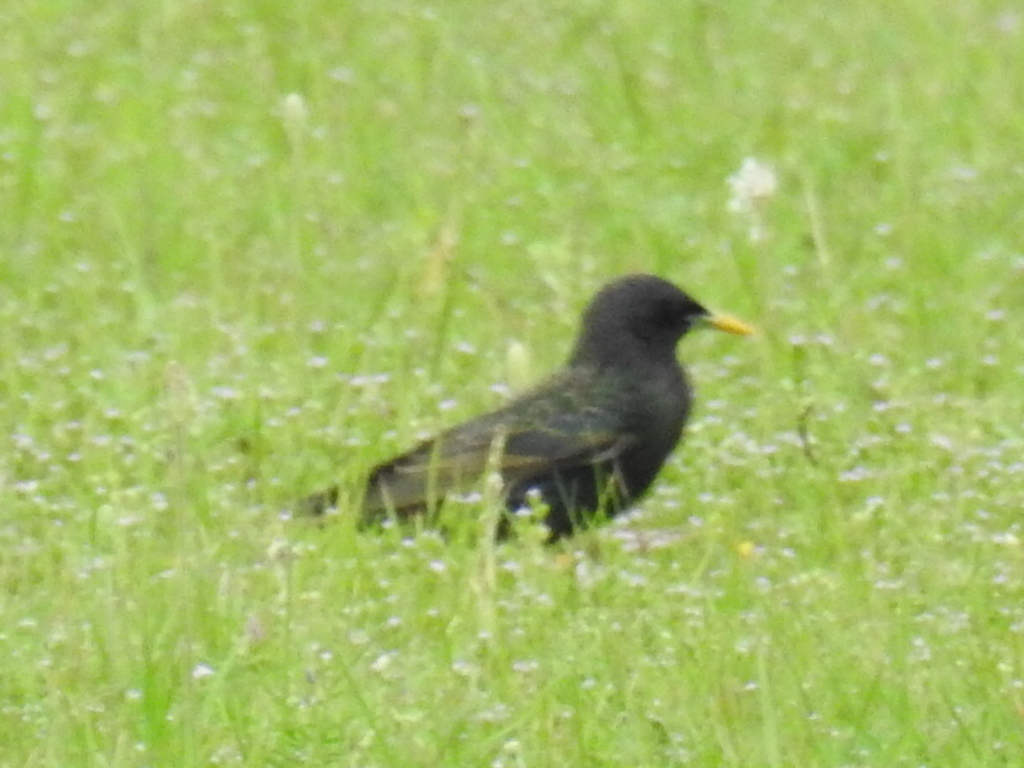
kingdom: Animalia
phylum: Chordata
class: Aves
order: Passeriformes
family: Sturnidae
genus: Sturnus
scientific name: Sturnus vulgaris
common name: Common starling
